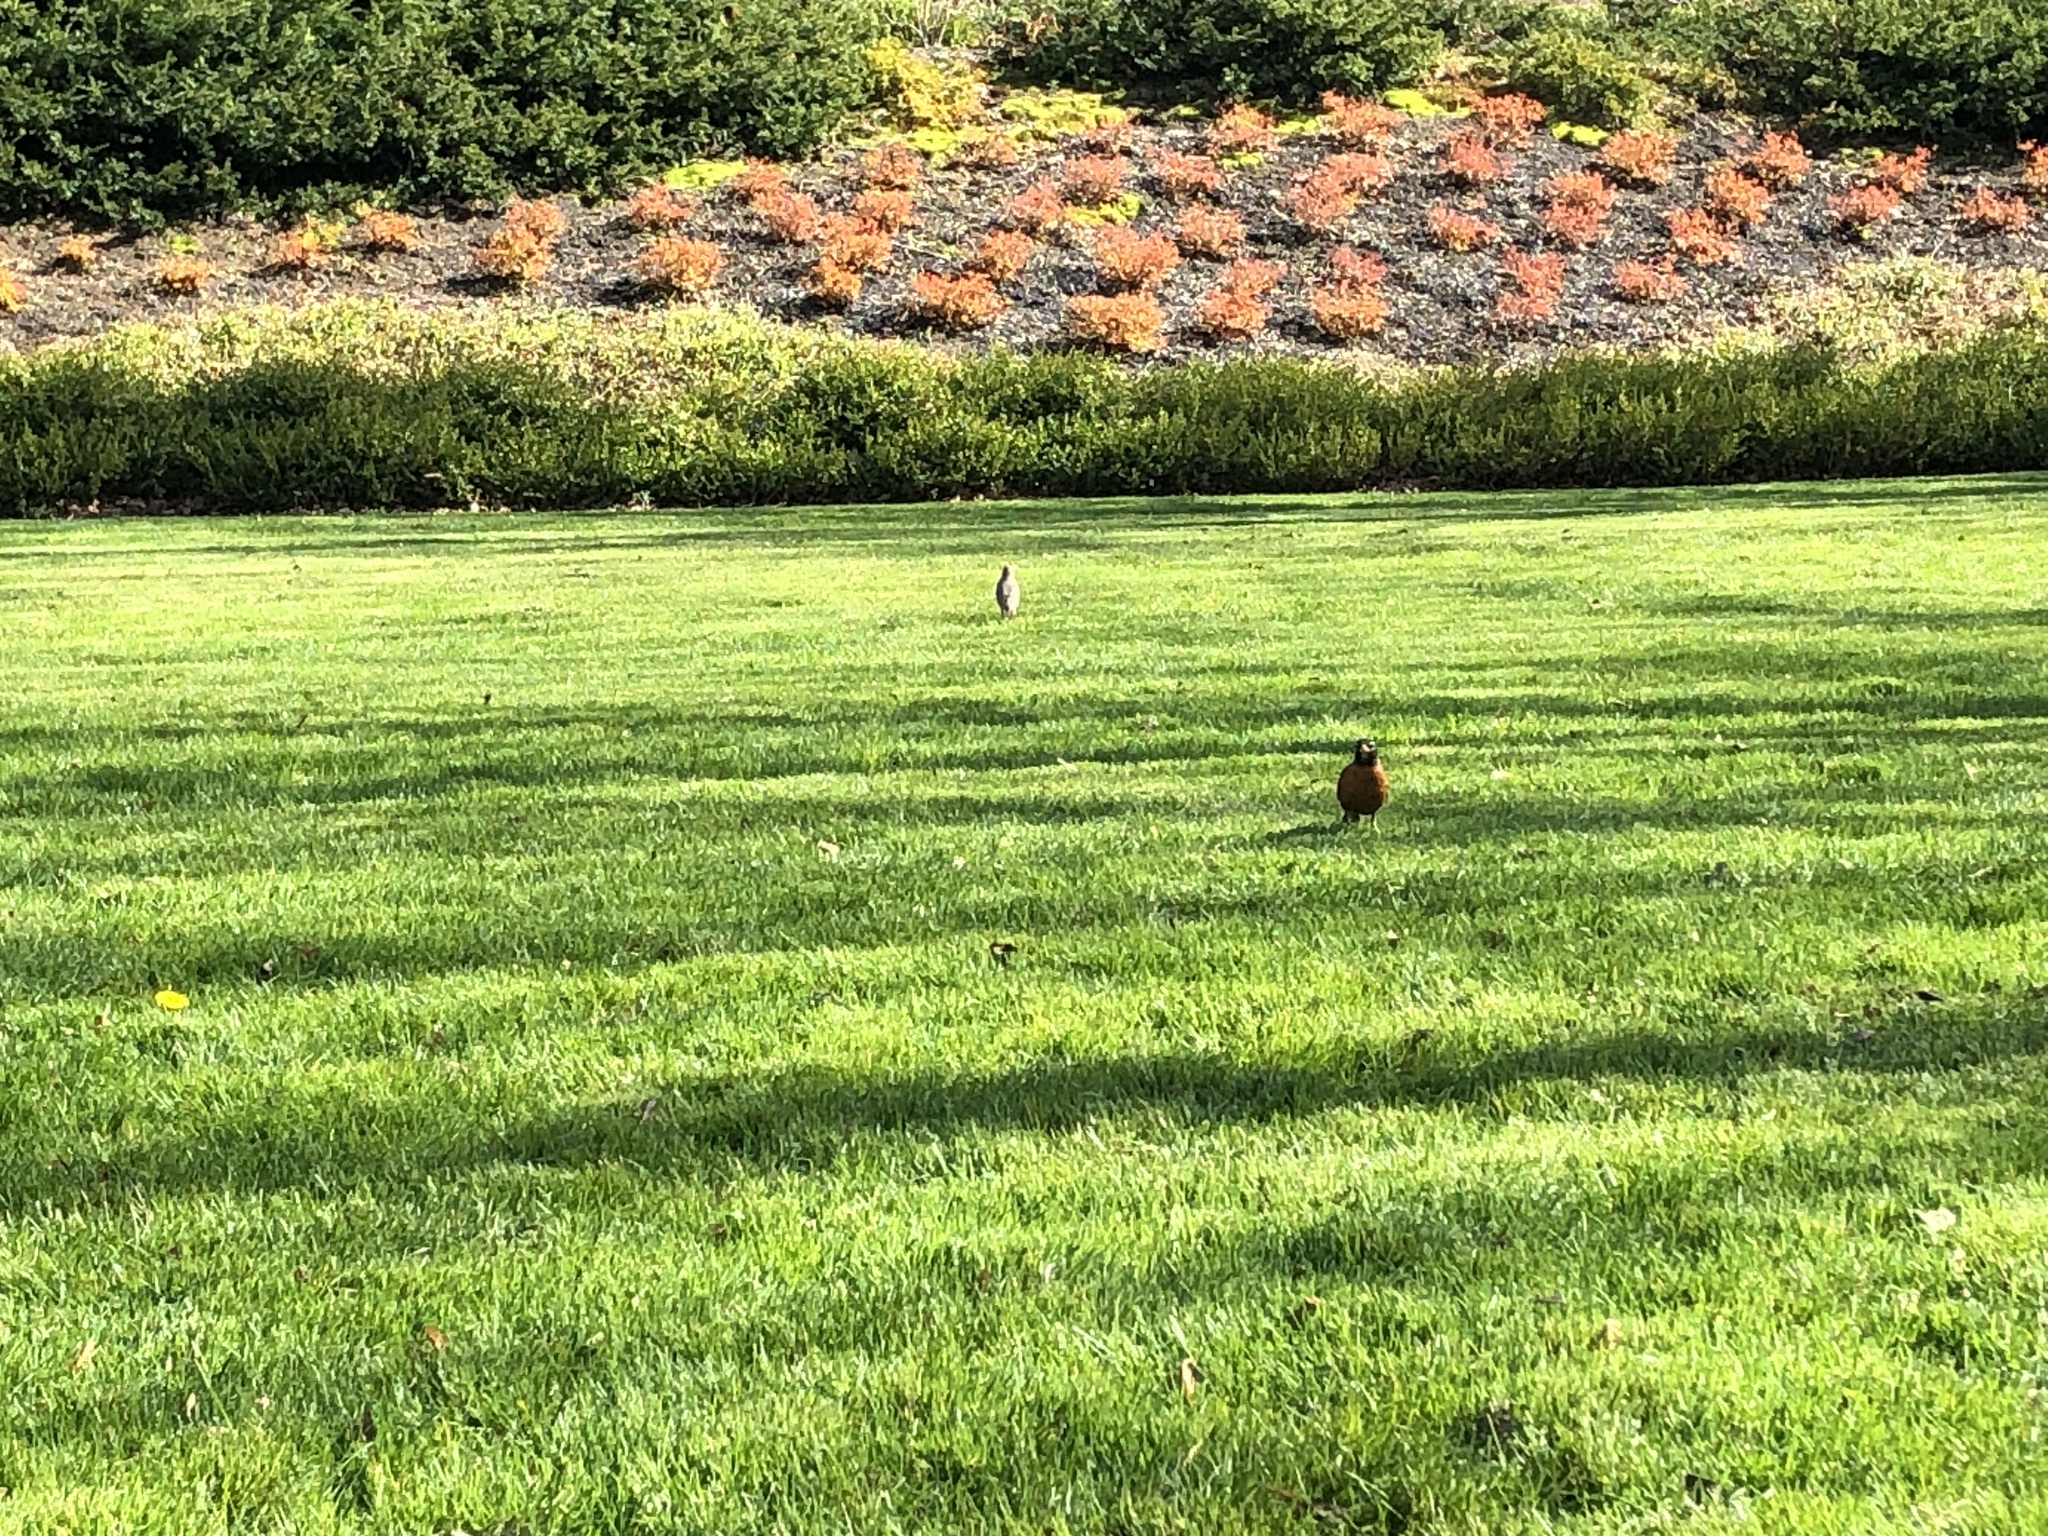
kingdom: Animalia
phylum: Chordata
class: Aves
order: Passeriformes
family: Turdidae
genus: Turdus
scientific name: Turdus migratorius
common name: American robin
